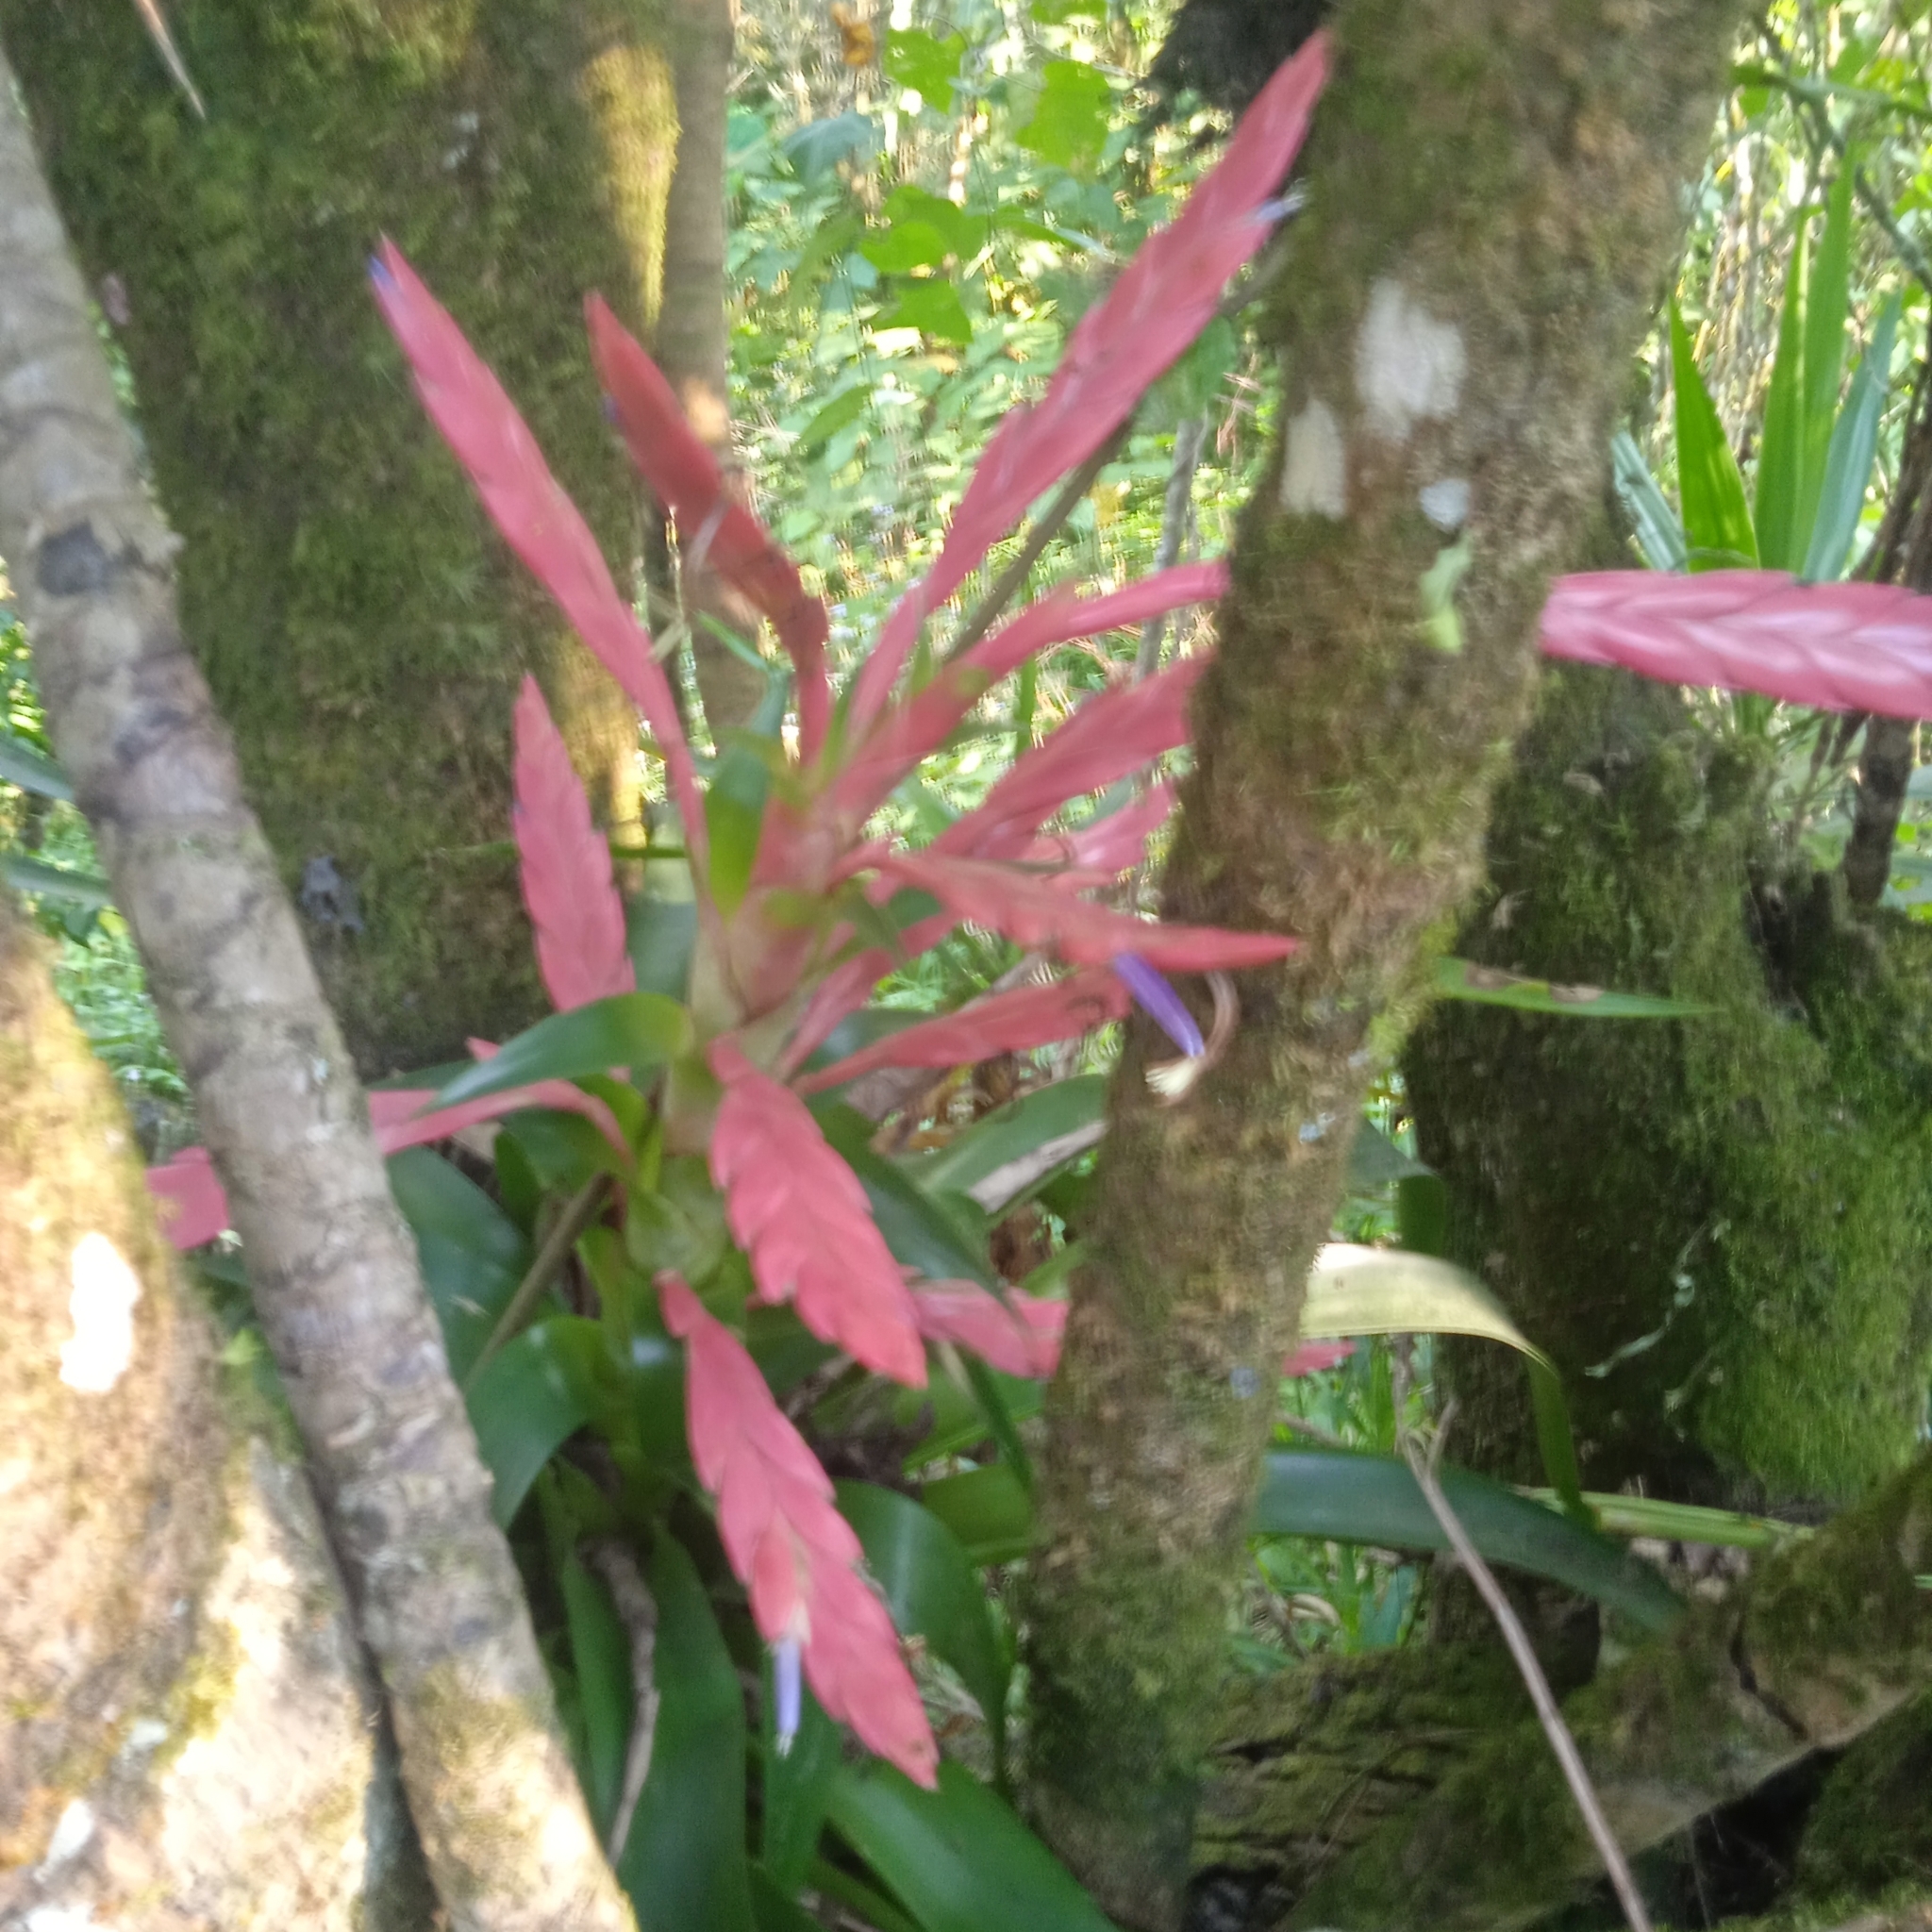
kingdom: Plantae
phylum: Tracheophyta
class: Liliopsida
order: Poales
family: Bromeliaceae
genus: Tillandsia
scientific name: Tillandsia deppeana
